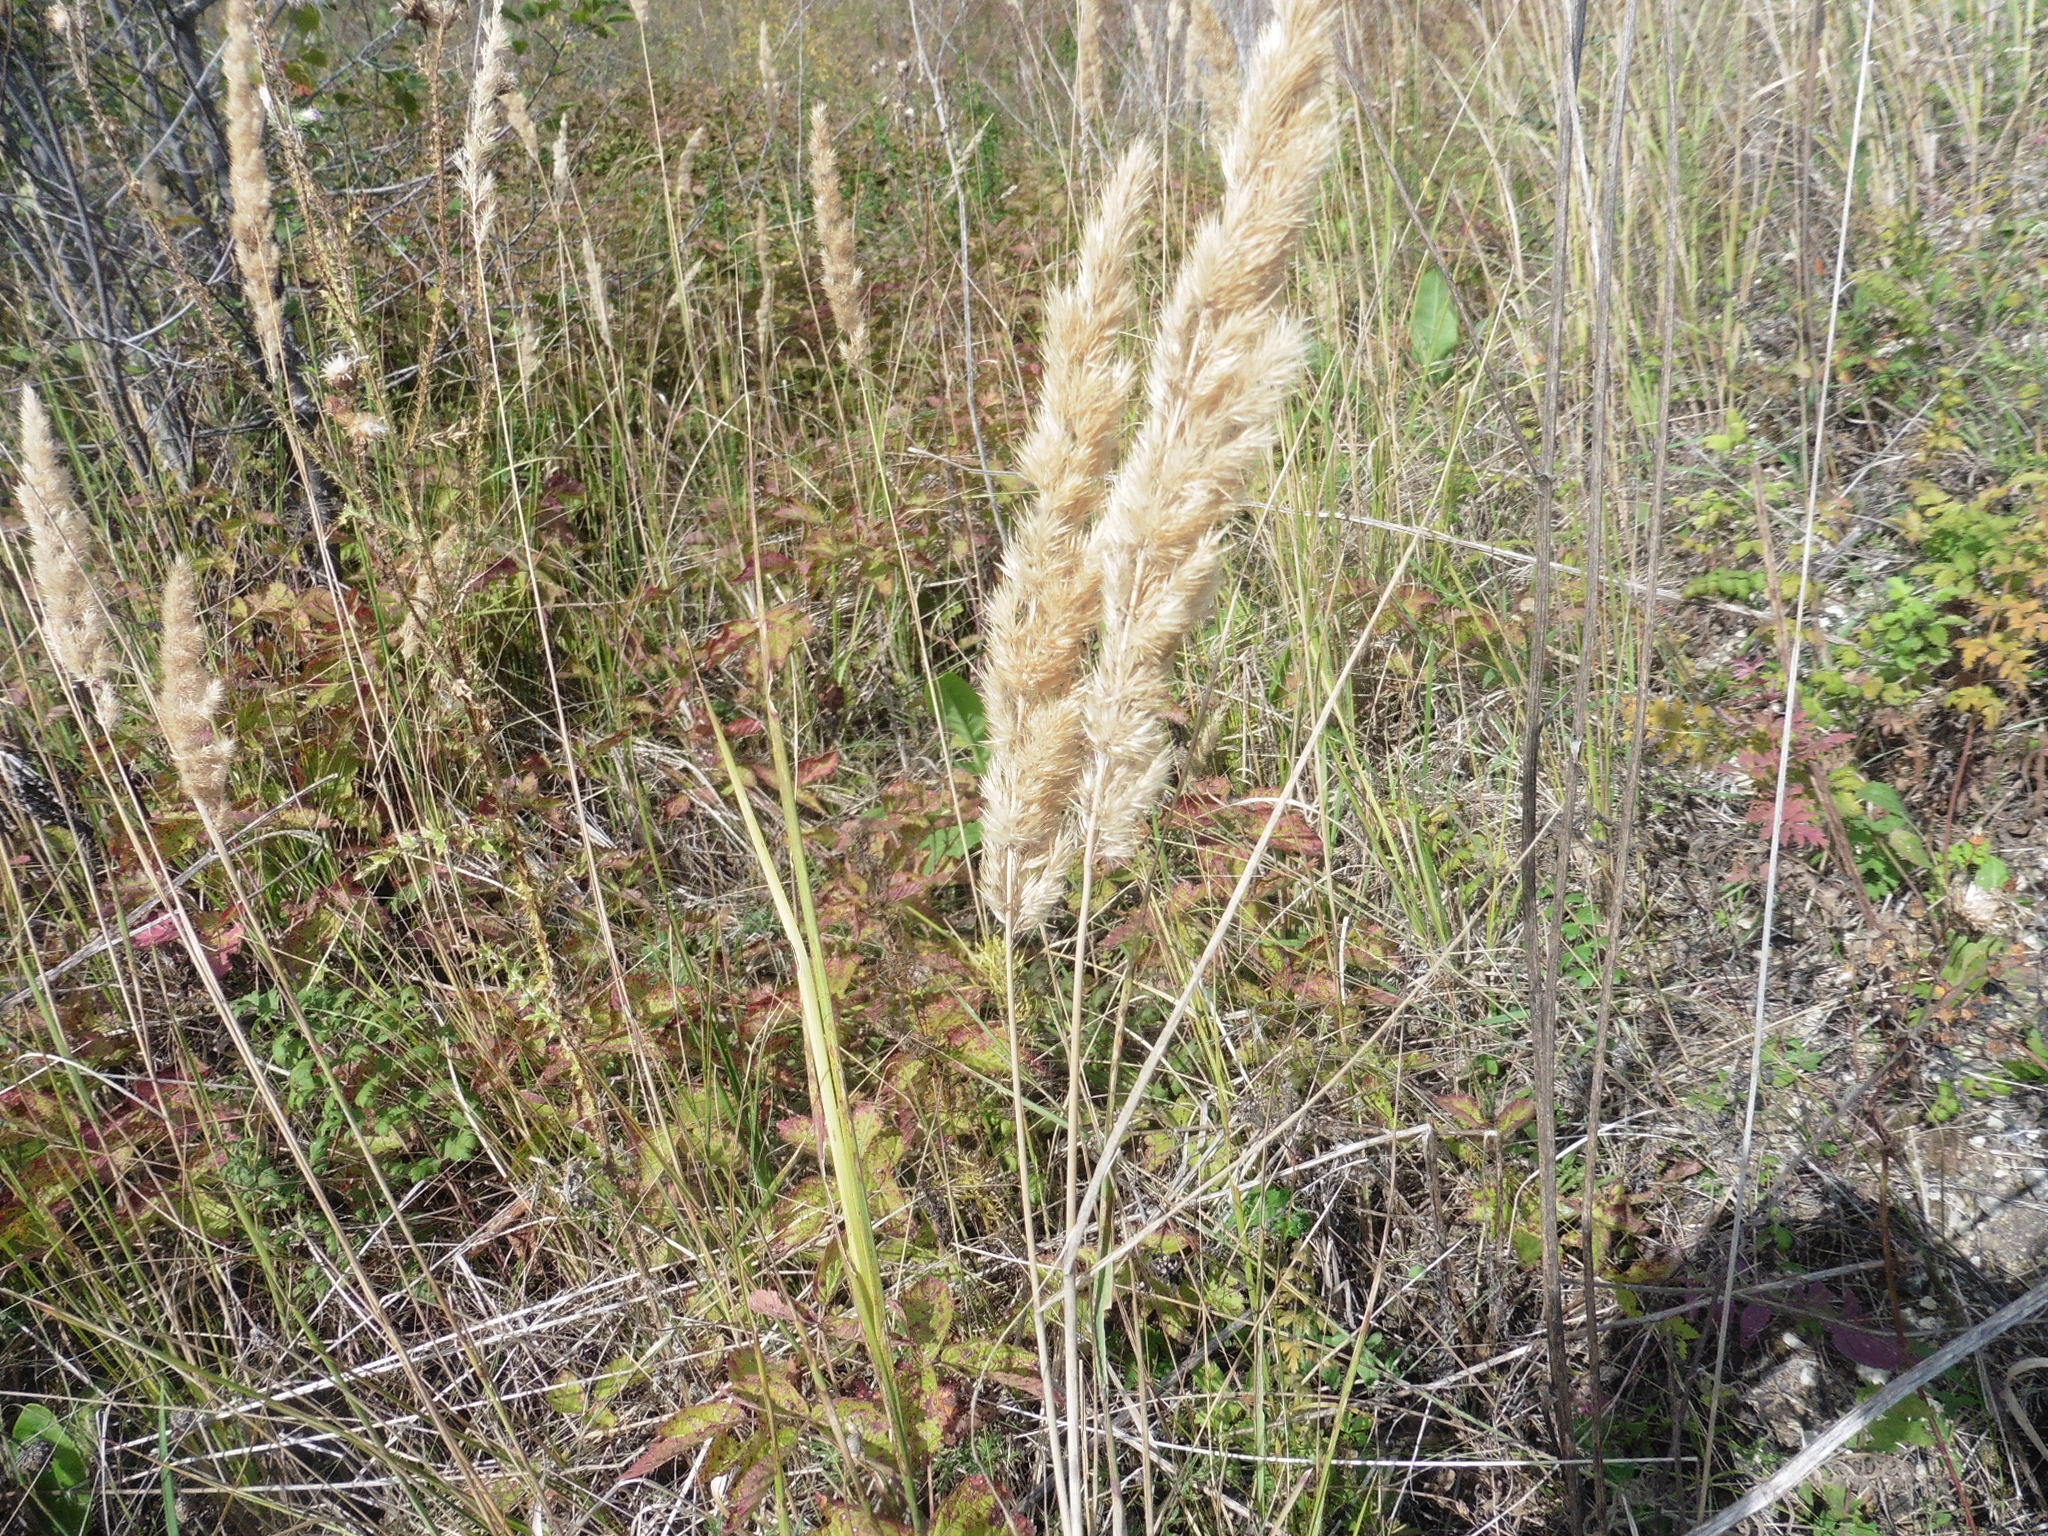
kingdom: Plantae
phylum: Tracheophyta
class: Liliopsida
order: Poales
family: Poaceae
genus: Calamagrostis
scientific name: Calamagrostis epigejos
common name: Wood small-reed
